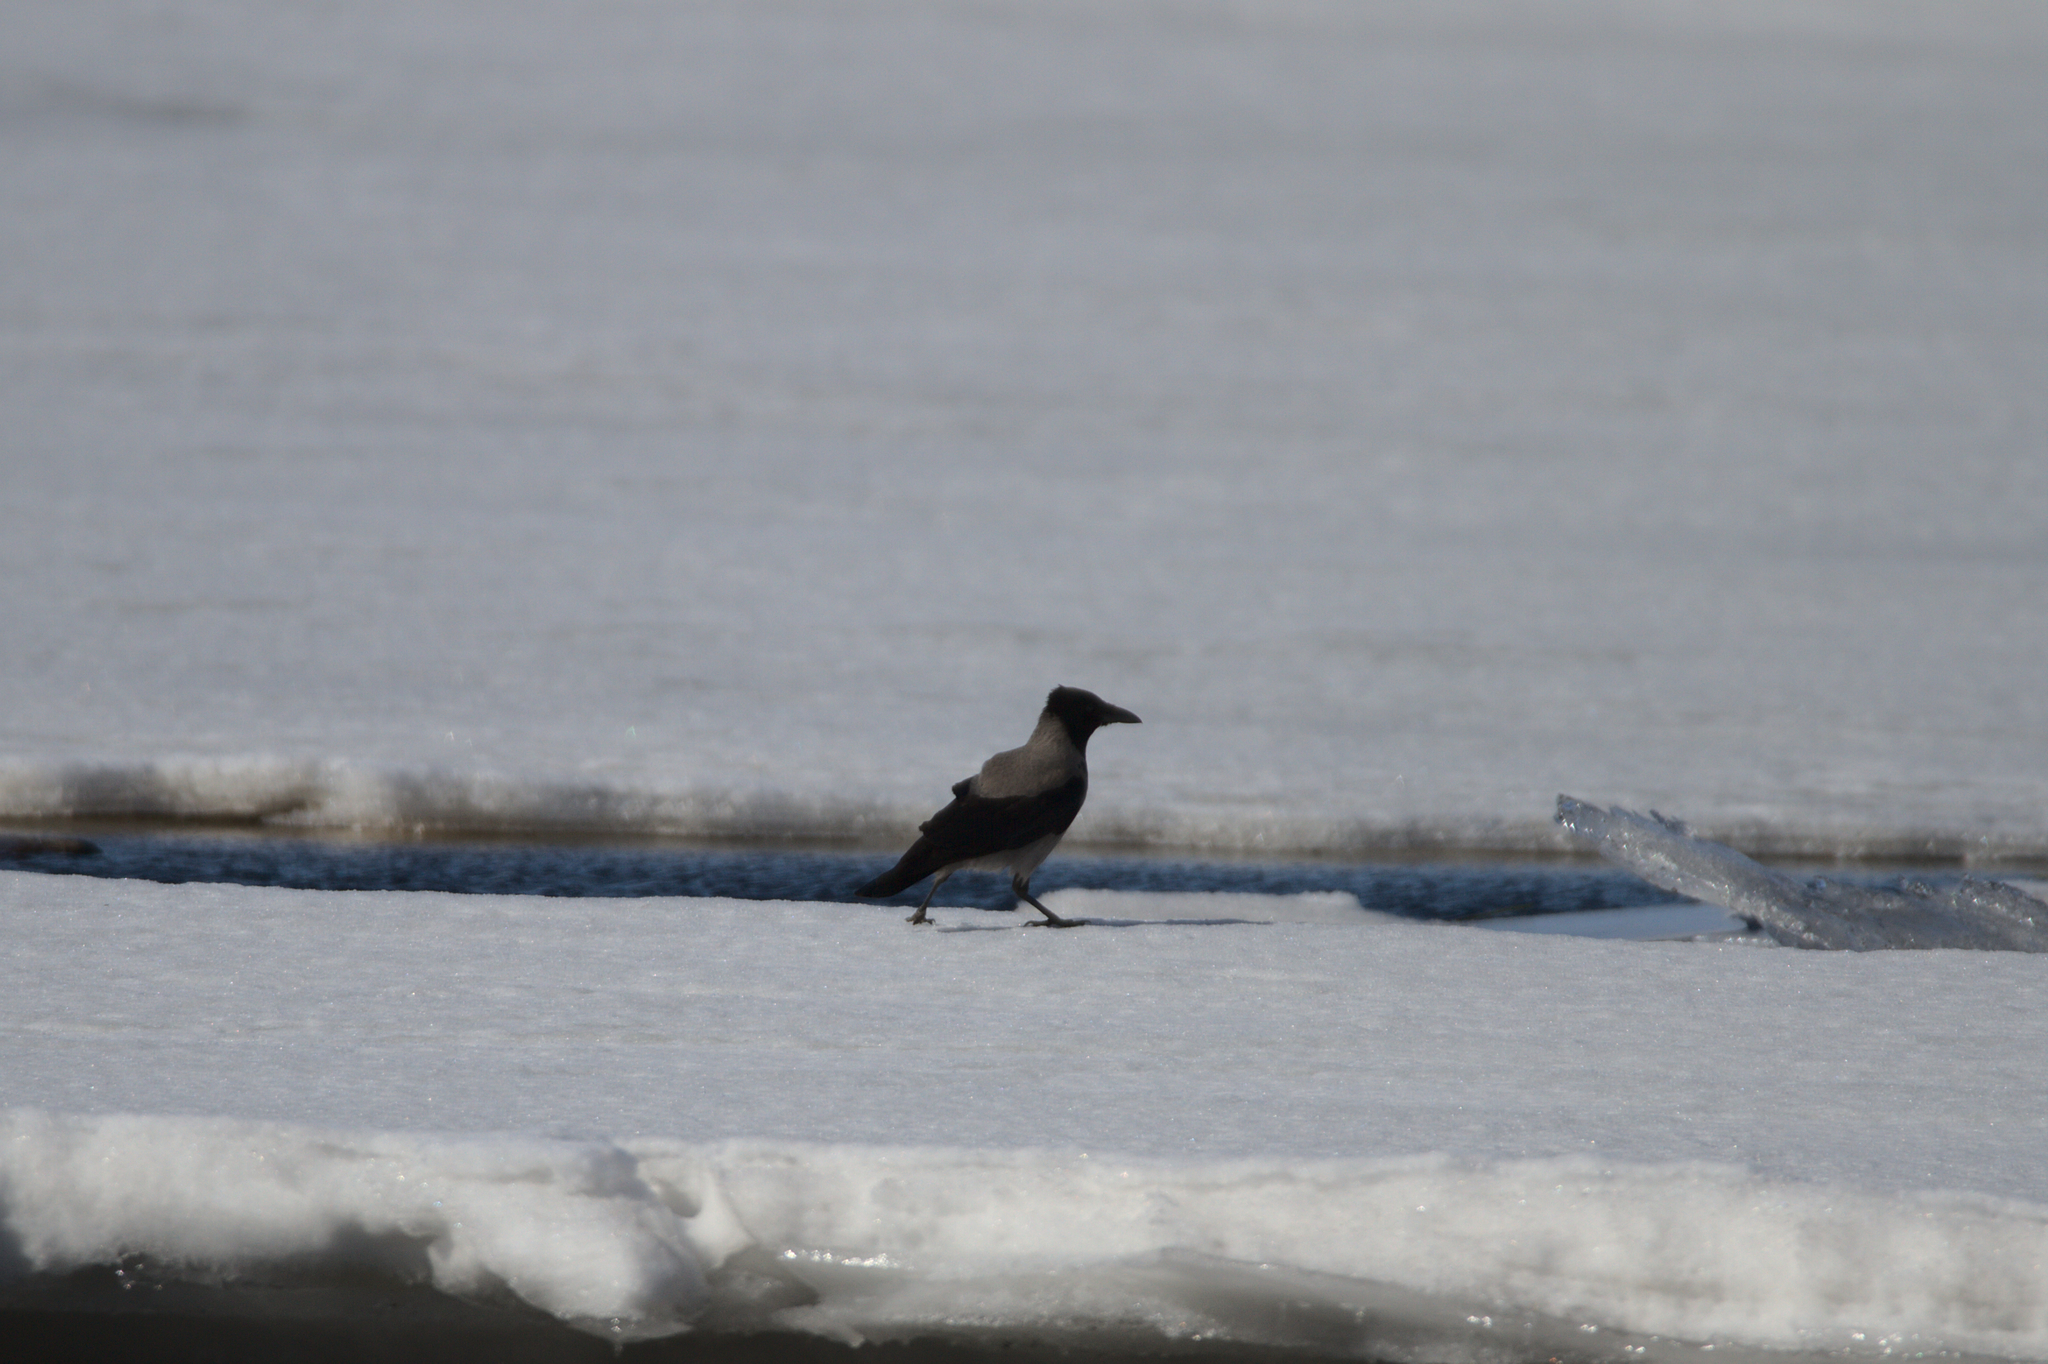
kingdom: Animalia
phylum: Chordata
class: Aves
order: Passeriformes
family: Corvidae
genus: Corvus
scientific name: Corvus cornix
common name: Hooded crow
